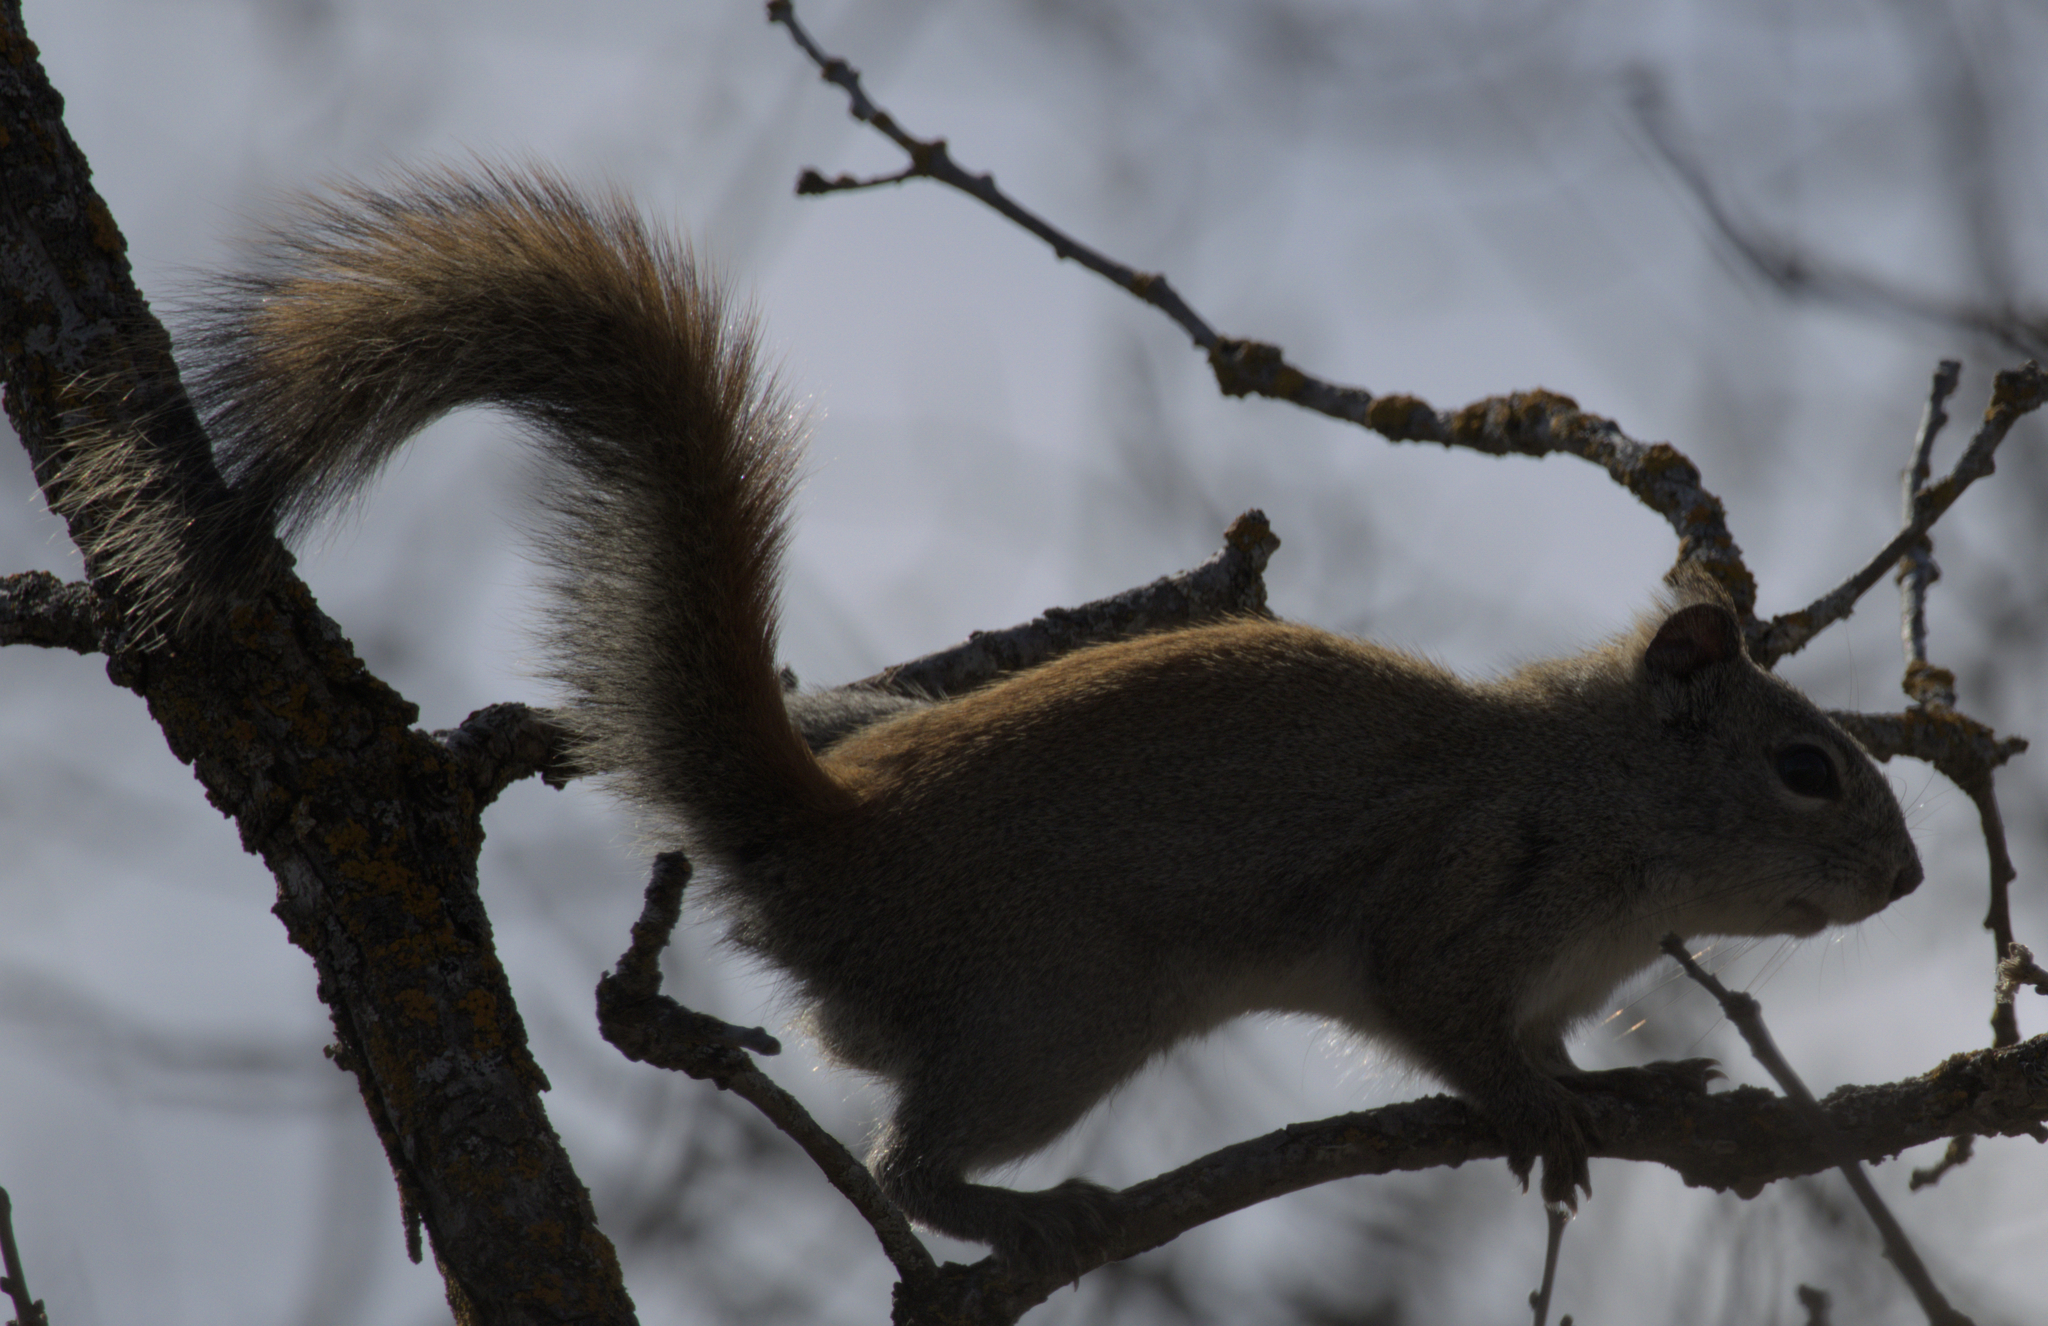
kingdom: Animalia
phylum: Chordata
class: Mammalia
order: Rodentia
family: Sciuridae
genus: Tamiasciurus
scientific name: Tamiasciurus hudsonicus
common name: Red squirrel
